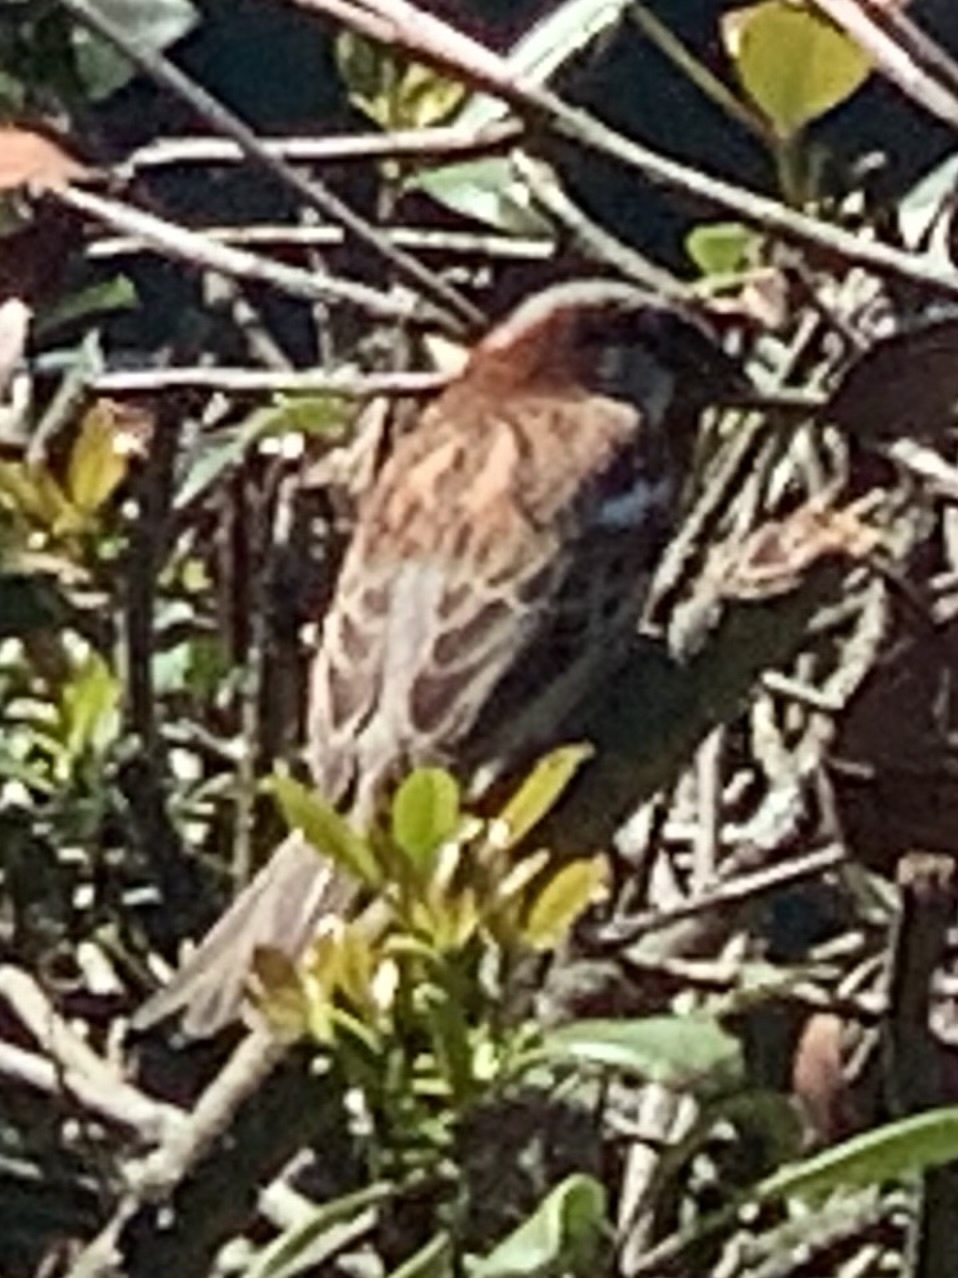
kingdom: Animalia
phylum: Chordata
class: Aves
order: Passeriformes
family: Passeridae
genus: Passer
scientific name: Passer domesticus
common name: House sparrow
